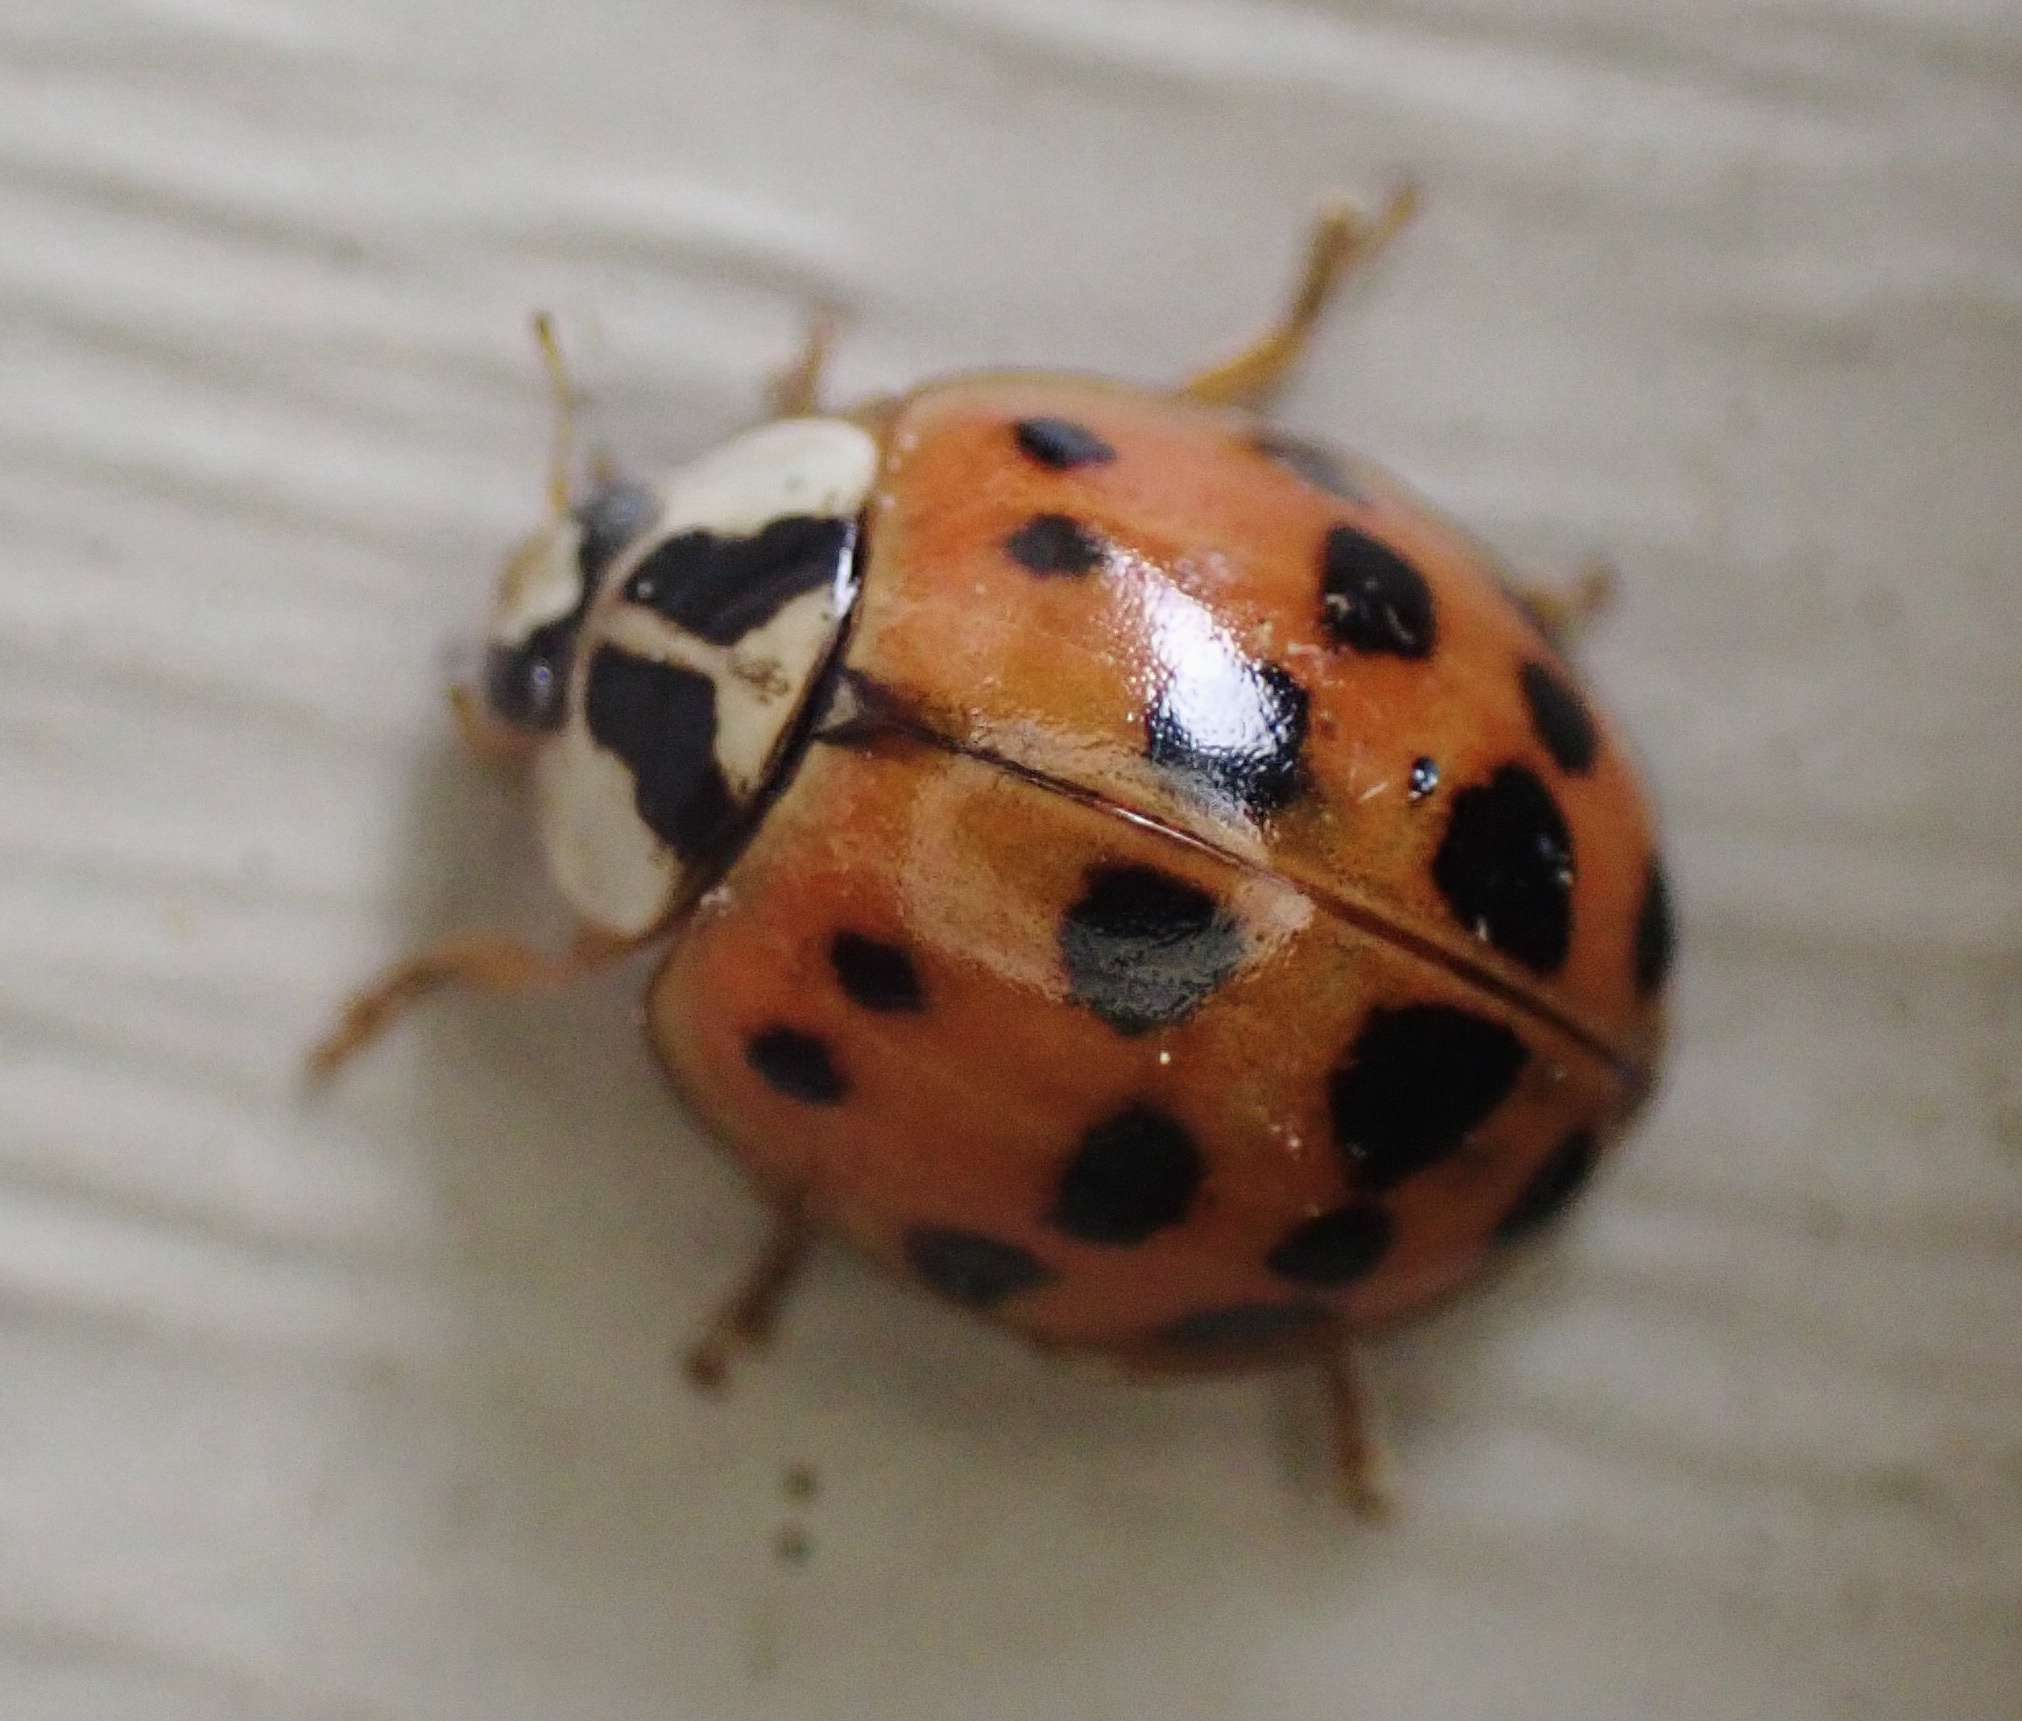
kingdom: Animalia
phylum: Arthropoda
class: Insecta
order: Coleoptera
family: Coccinellidae
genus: Harmonia
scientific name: Harmonia axyridis
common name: Harlequin ladybird
